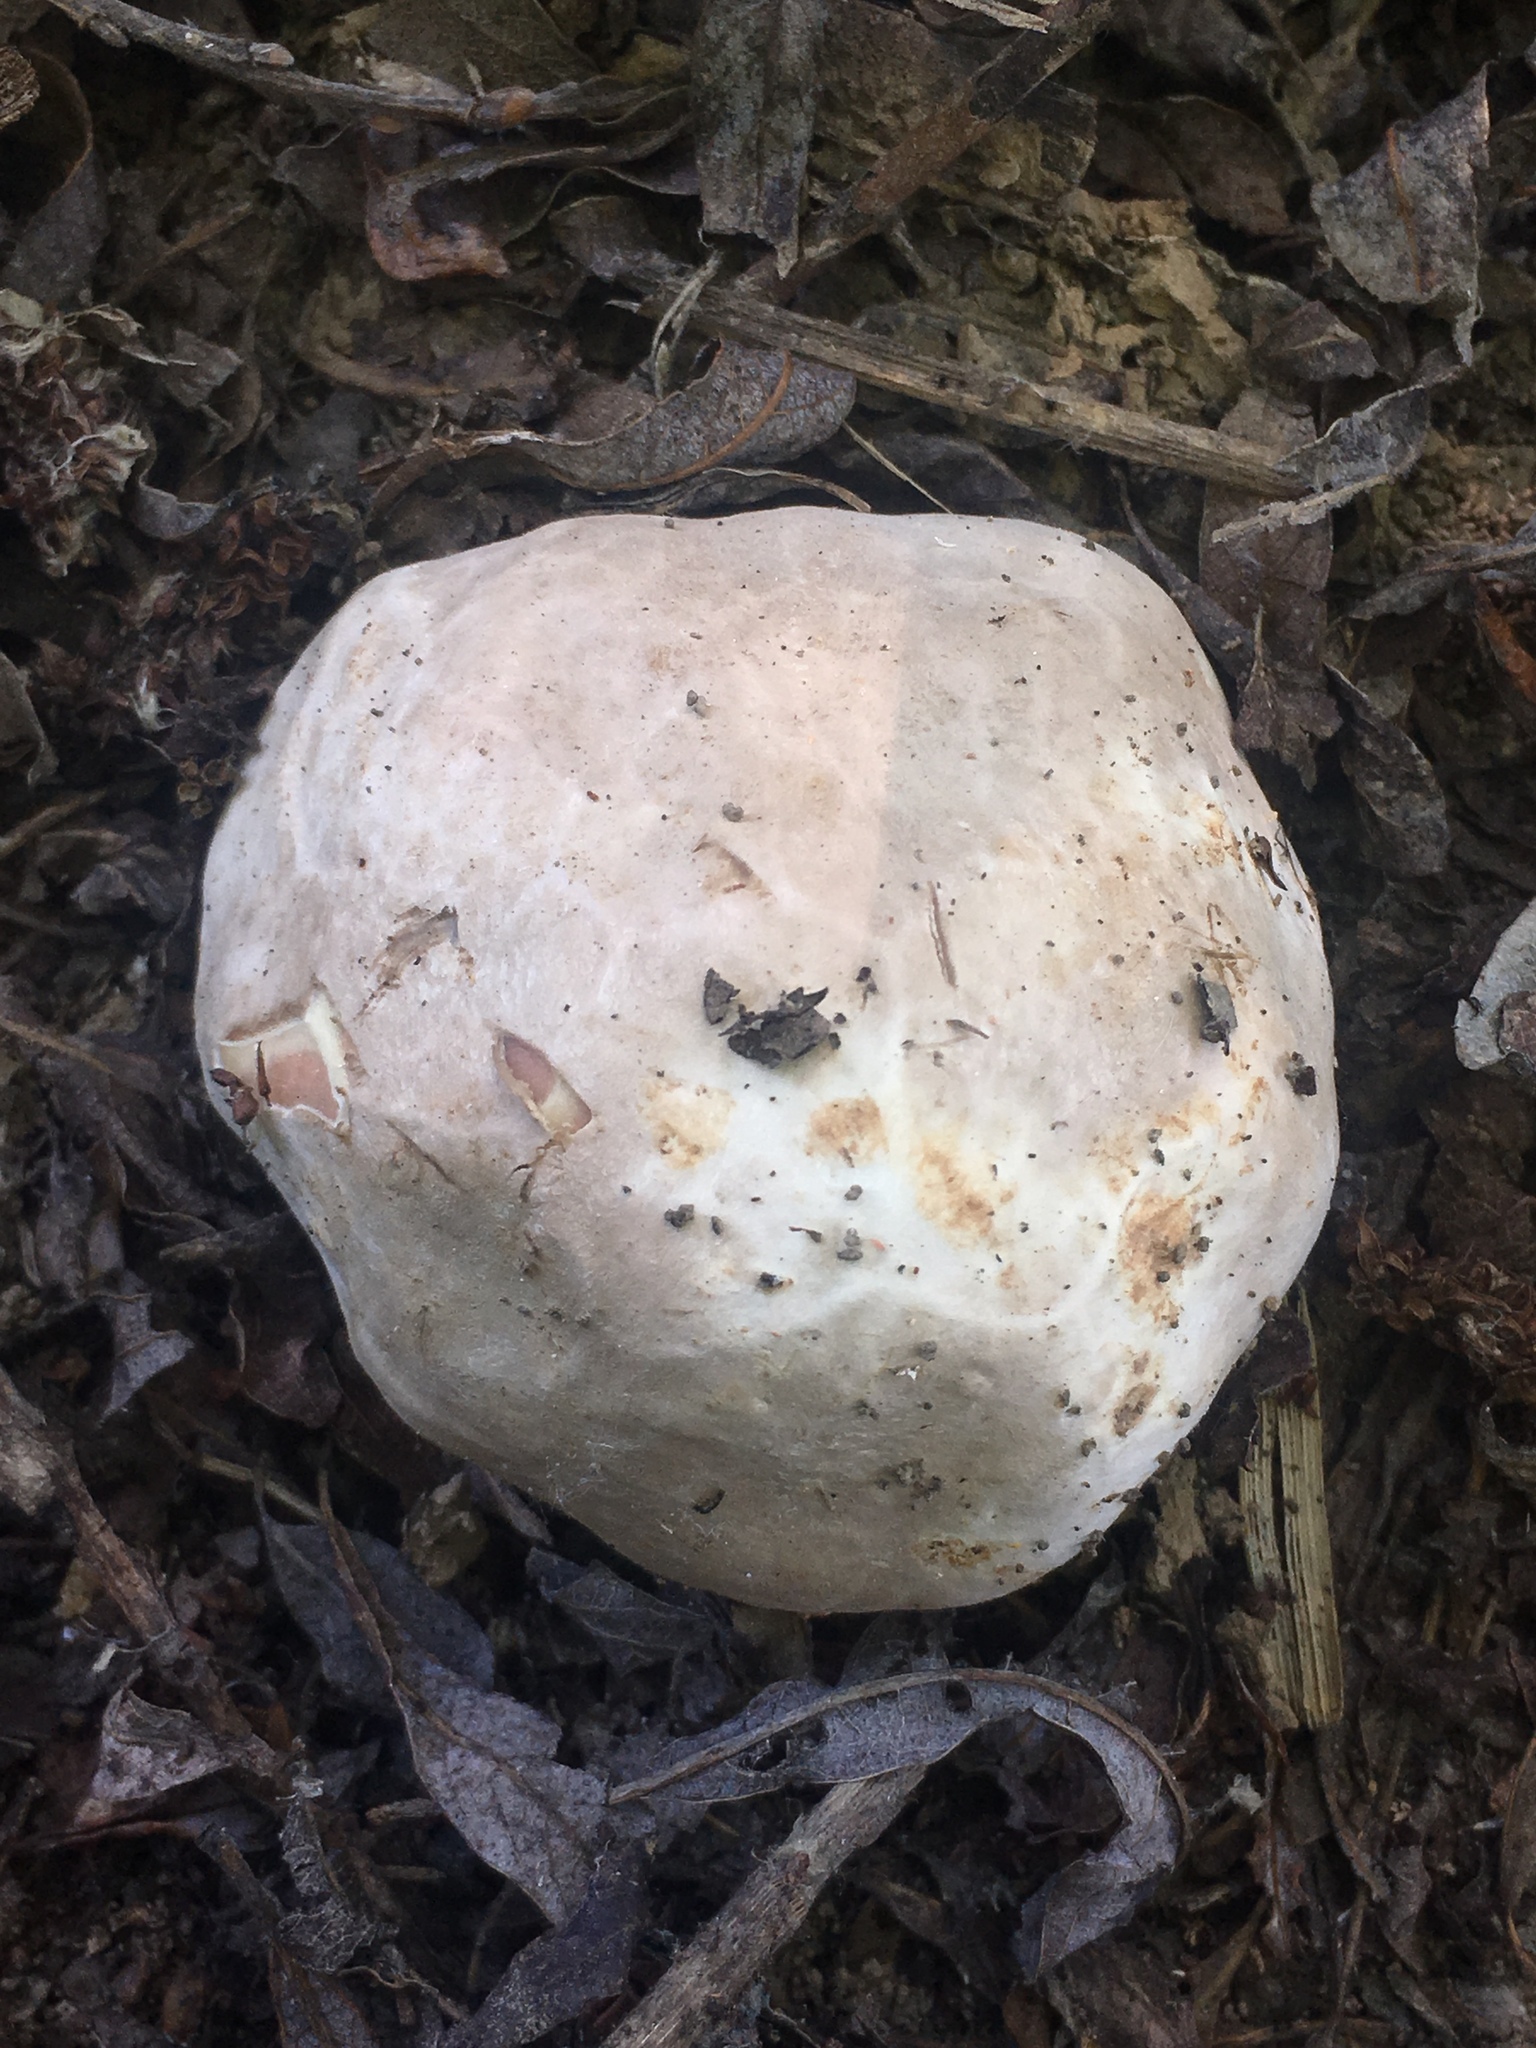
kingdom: Fungi
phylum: Basidiomycota
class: Agaricomycetes
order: Phallales
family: Phallaceae
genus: Clathrus
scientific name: Clathrus ruber
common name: Red cage
